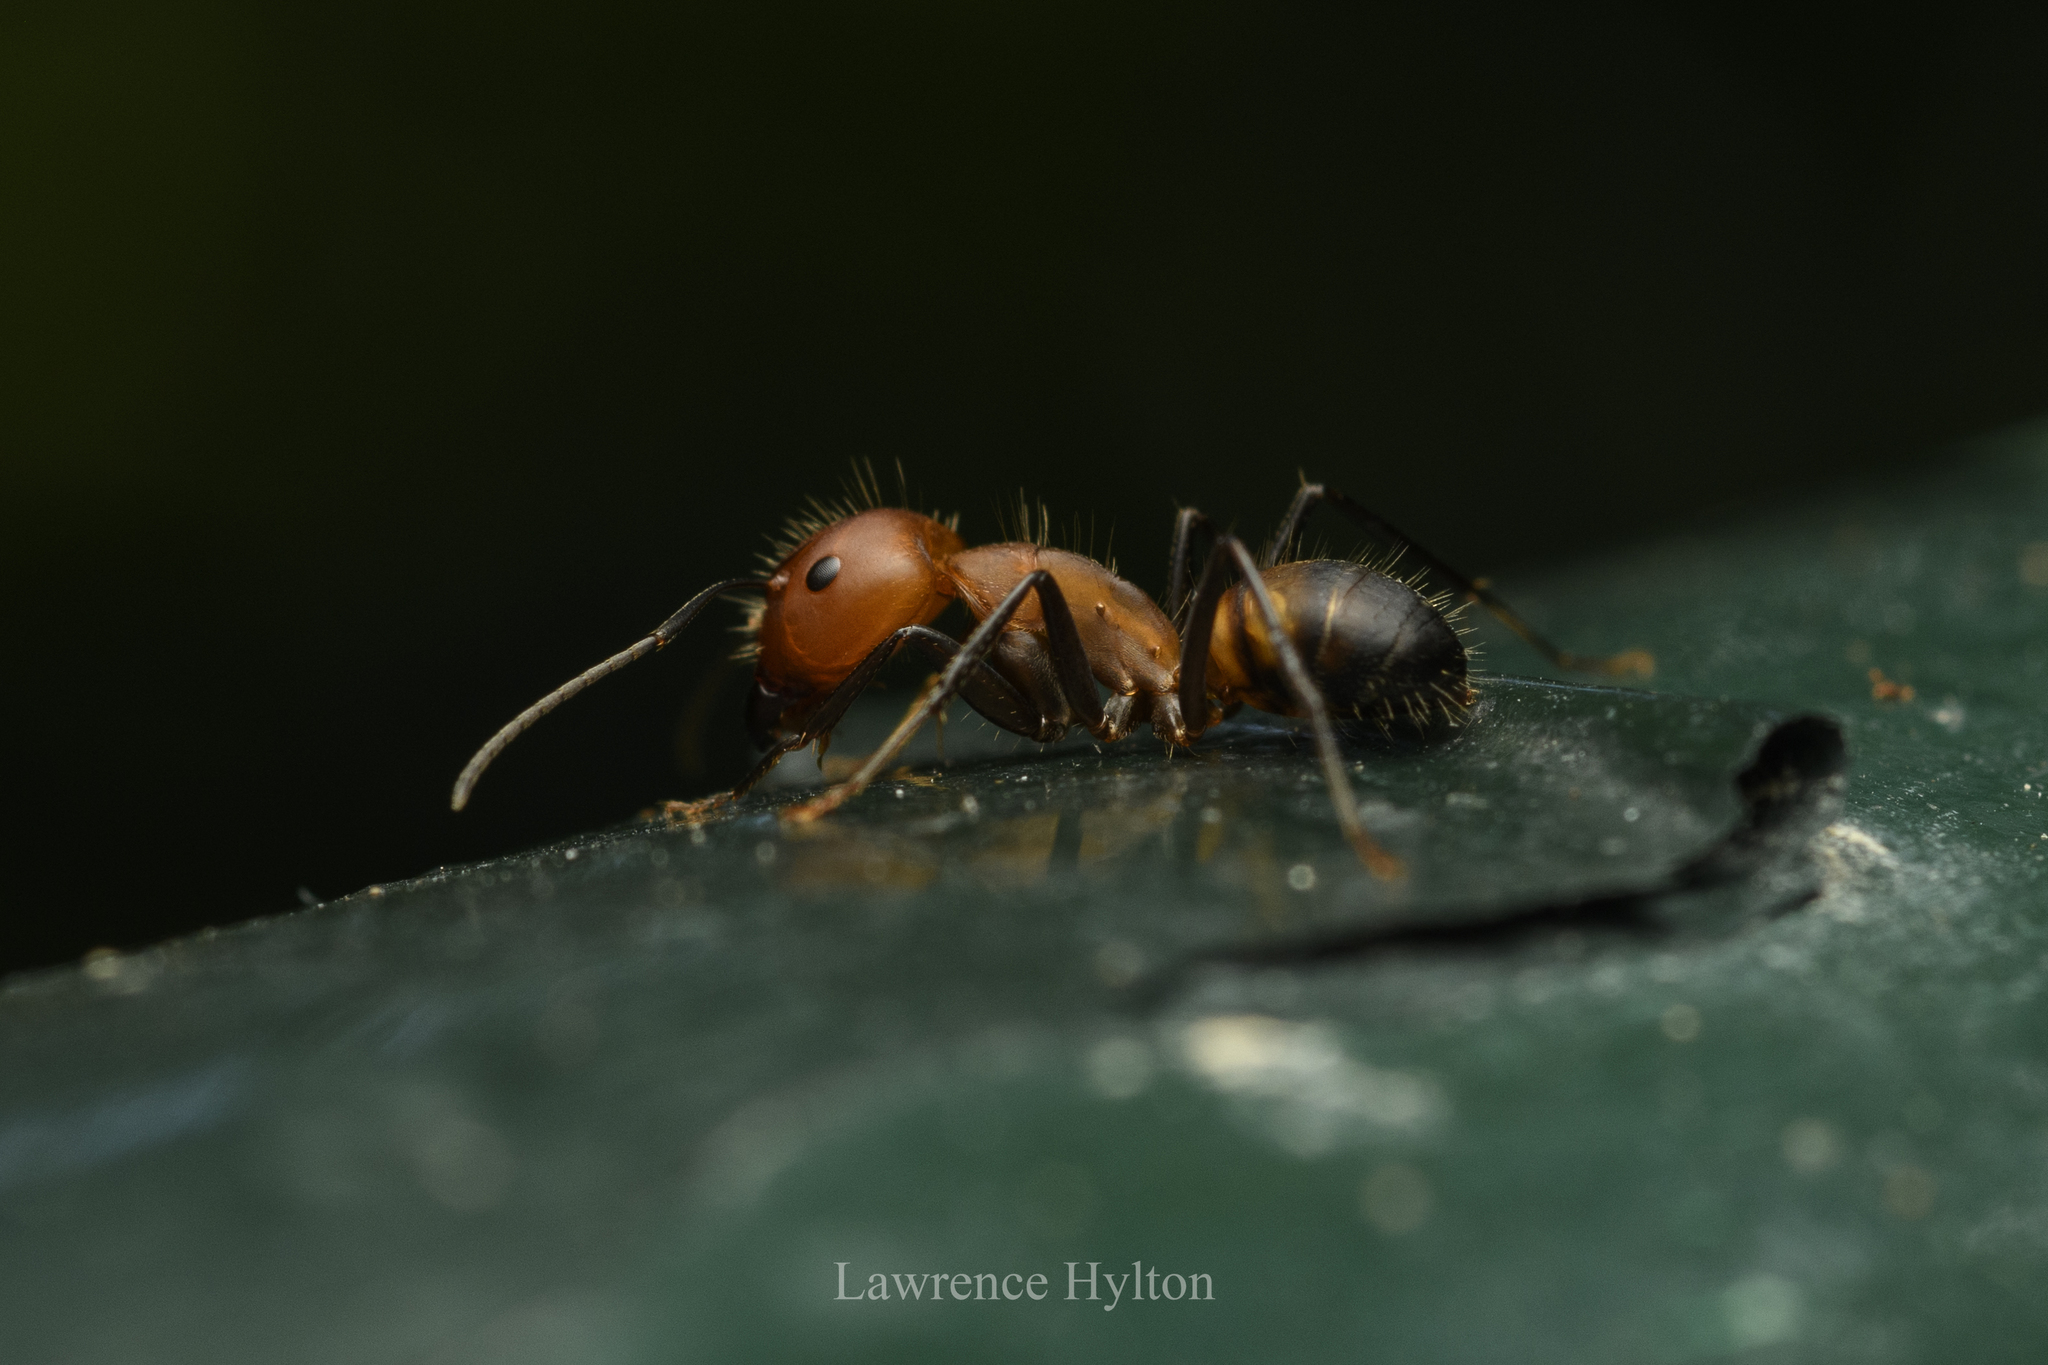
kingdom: Animalia
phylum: Arthropoda
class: Insecta
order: Hymenoptera
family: Formicidae
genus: Camponotus
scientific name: Camponotus nicobarensis
